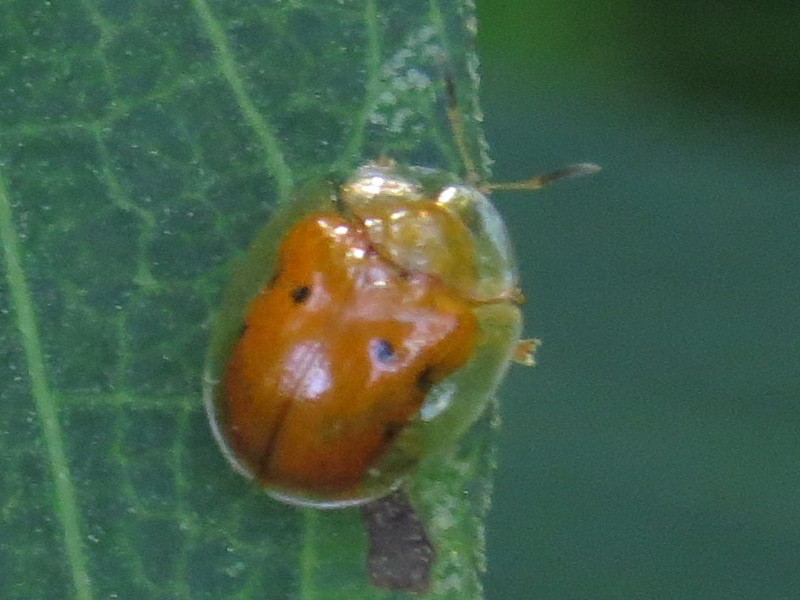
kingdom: Animalia
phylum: Arthropoda
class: Insecta
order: Coleoptera
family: Chrysomelidae
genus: Charidotella
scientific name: Charidotella sexpunctata
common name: Golden tortoise beetle
